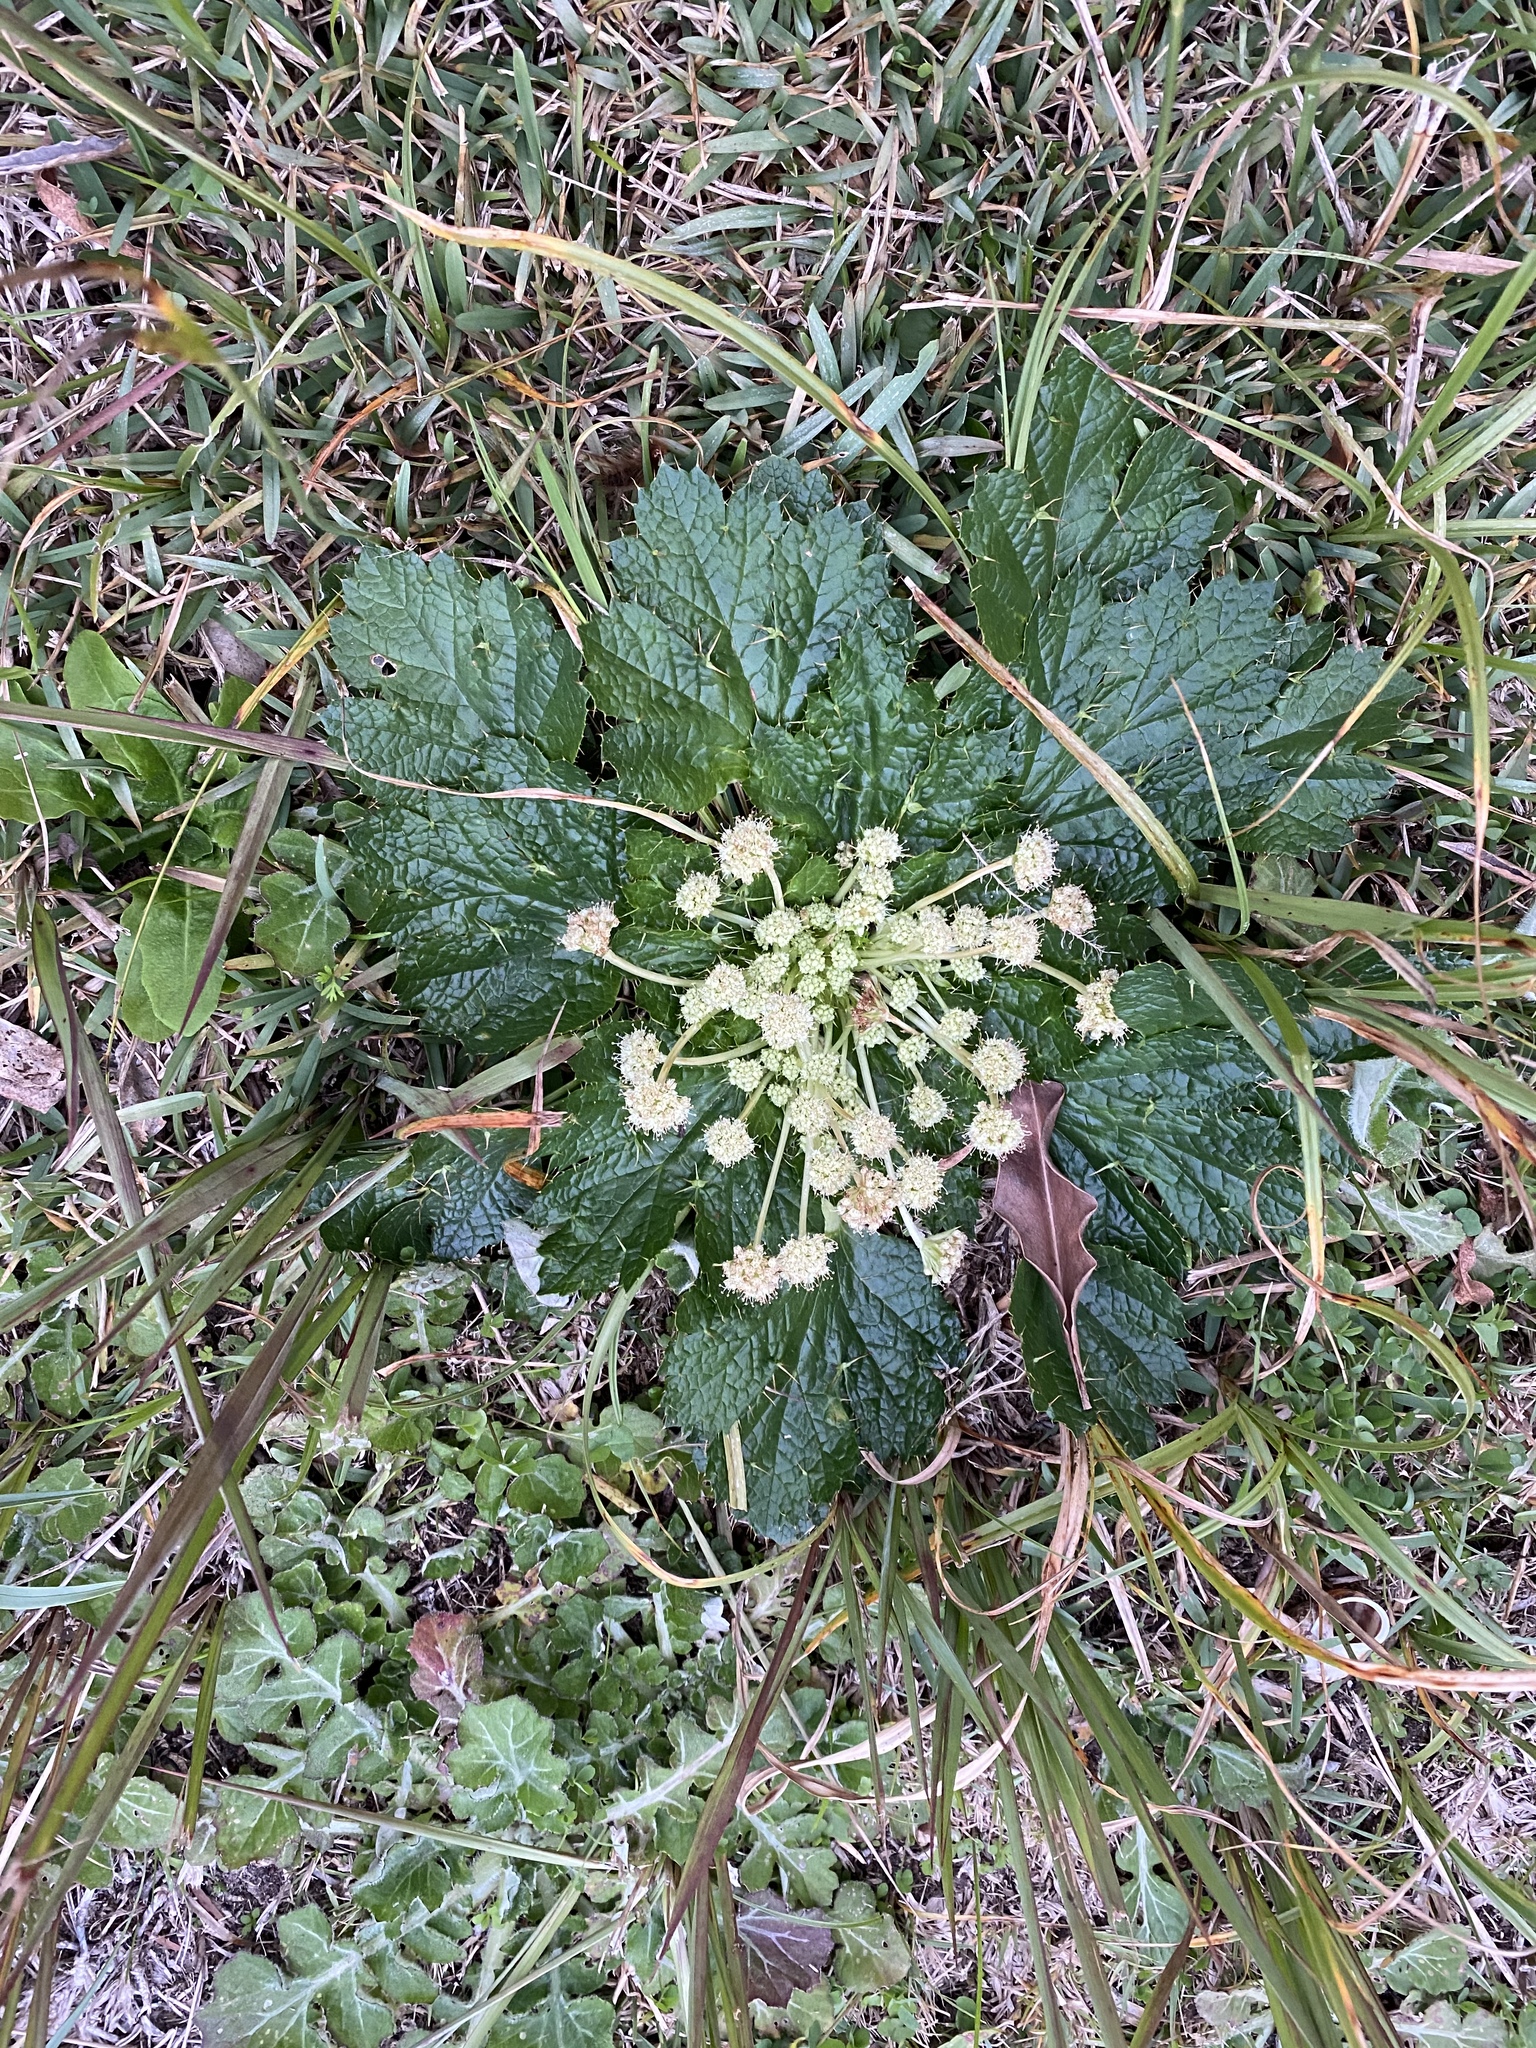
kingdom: Plantae
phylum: Tracheophyta
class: Magnoliopsida
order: Apiales
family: Apiaceae
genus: Arctopus
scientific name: Arctopus echinatus
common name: Platdoring
